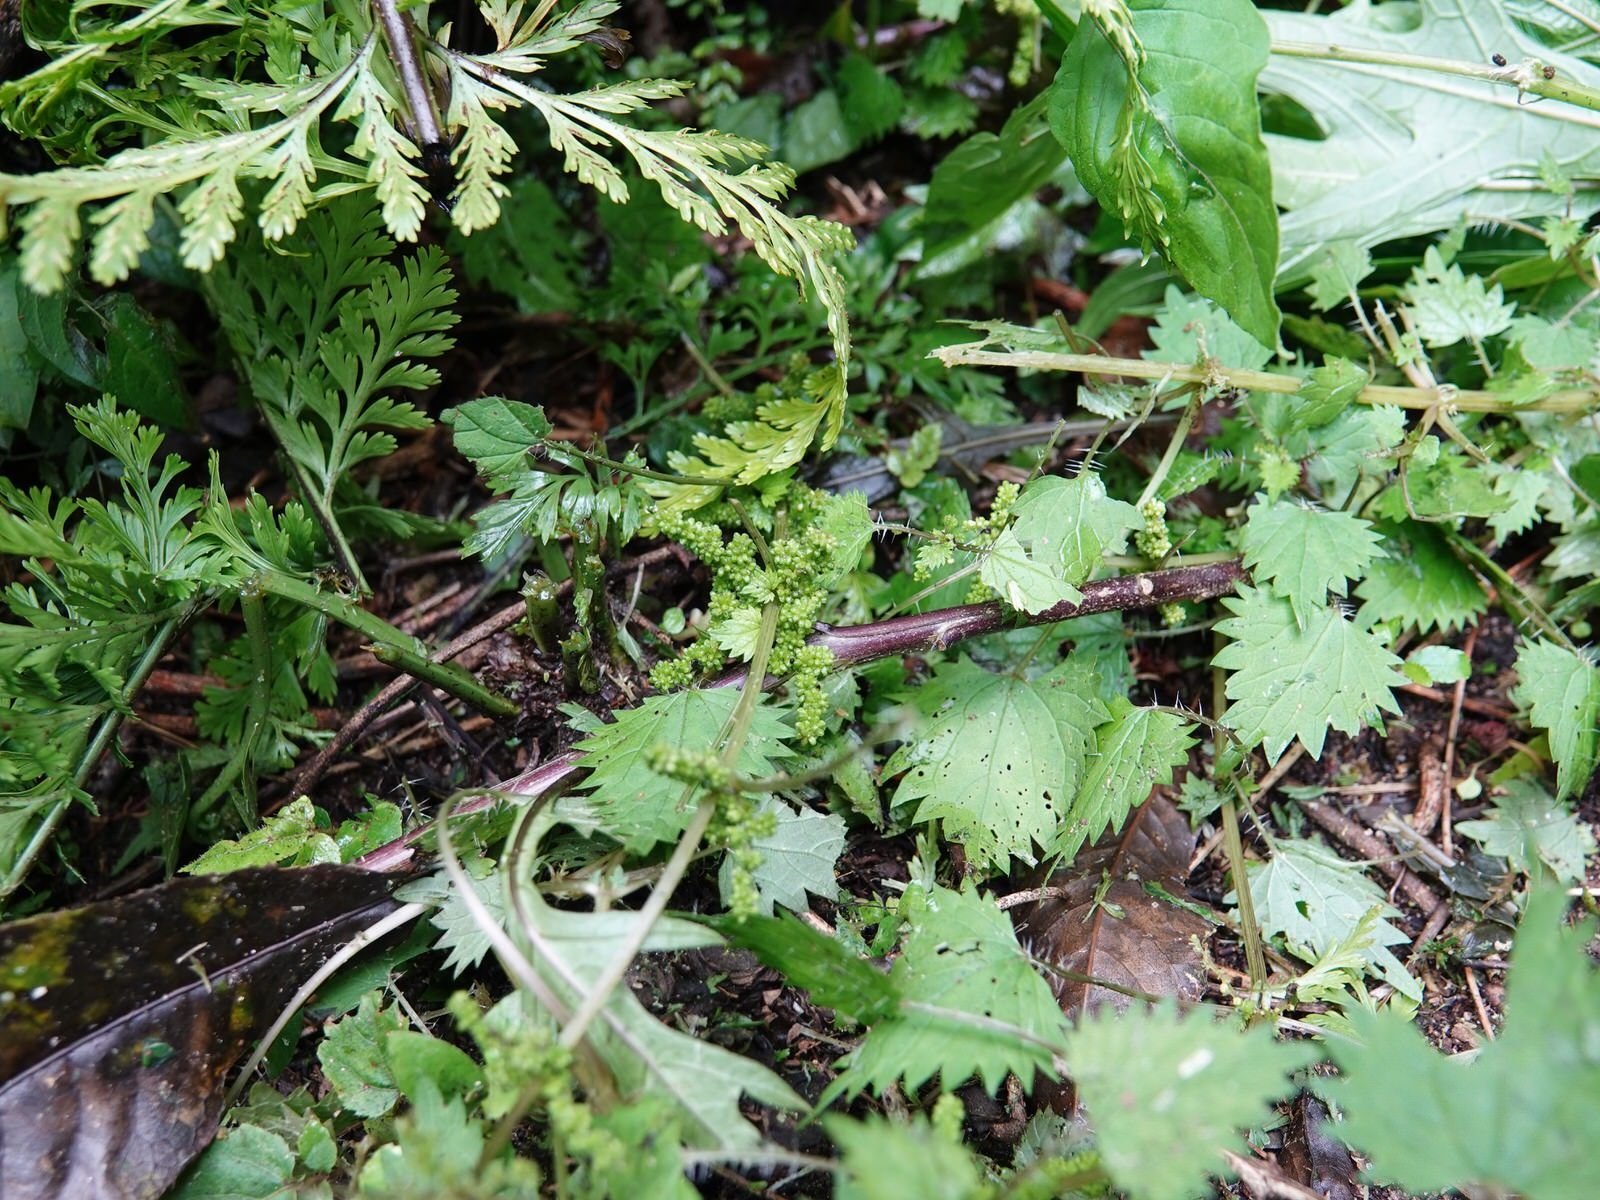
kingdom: Plantae
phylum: Tracheophyta
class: Magnoliopsida
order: Rosales
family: Urticaceae
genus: Urtica
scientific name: Urtica sykesii
